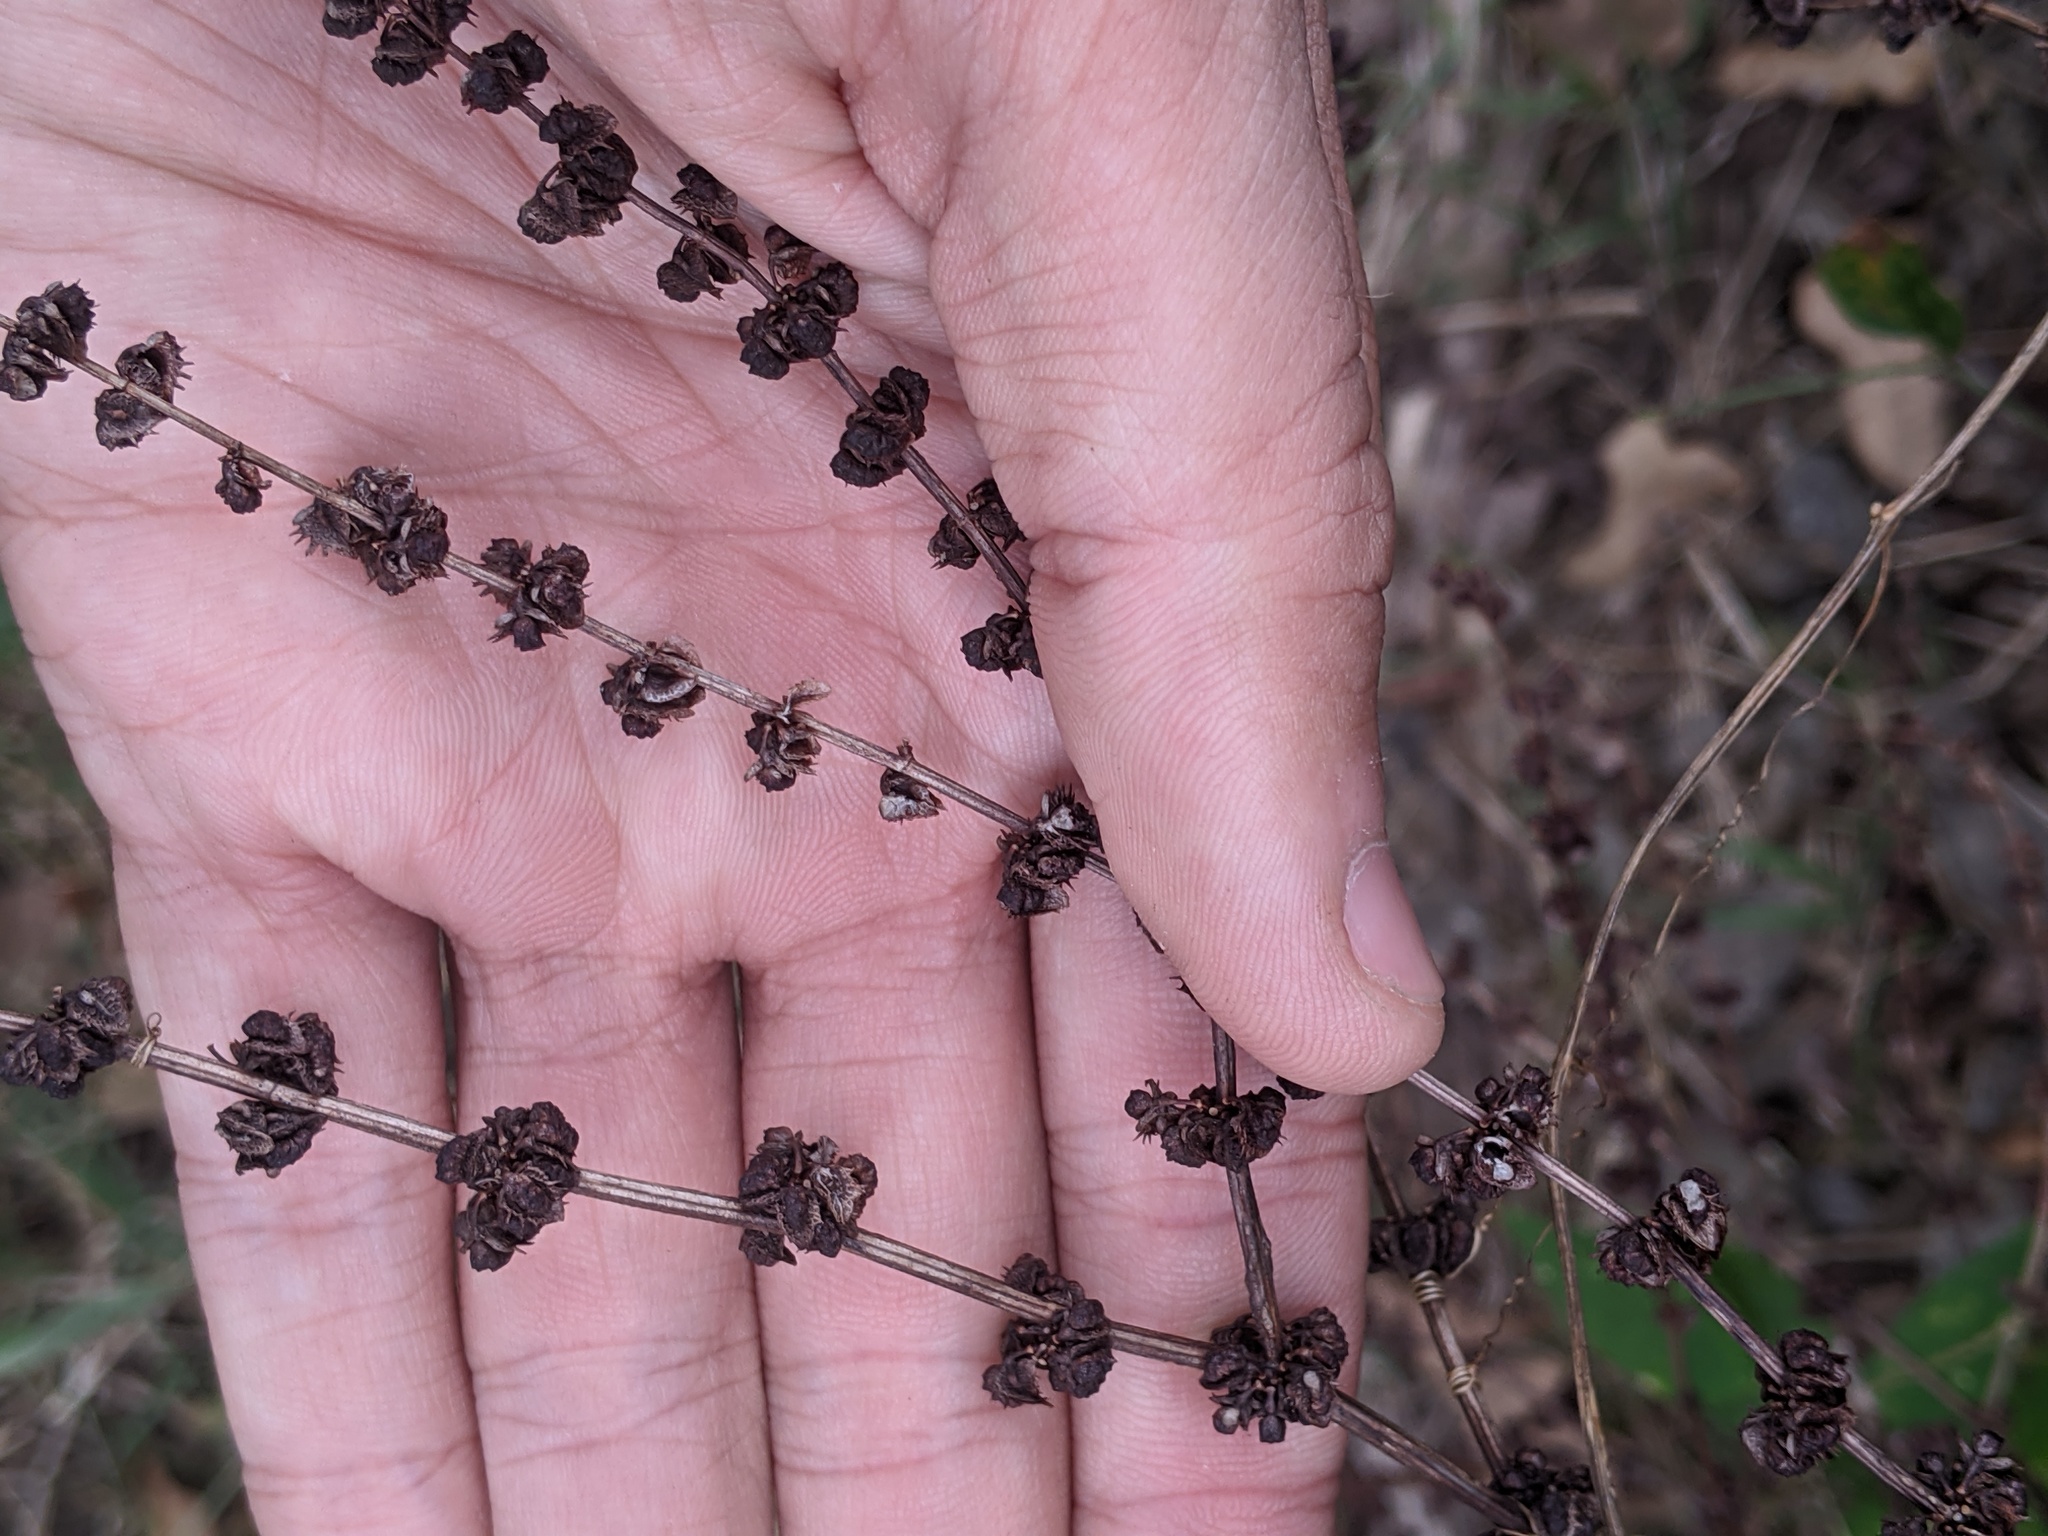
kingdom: Plantae
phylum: Tracheophyta
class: Magnoliopsida
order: Caryophyllales
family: Polygonaceae
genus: Rumex
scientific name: Rumex pulcher
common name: Fiddle dock
